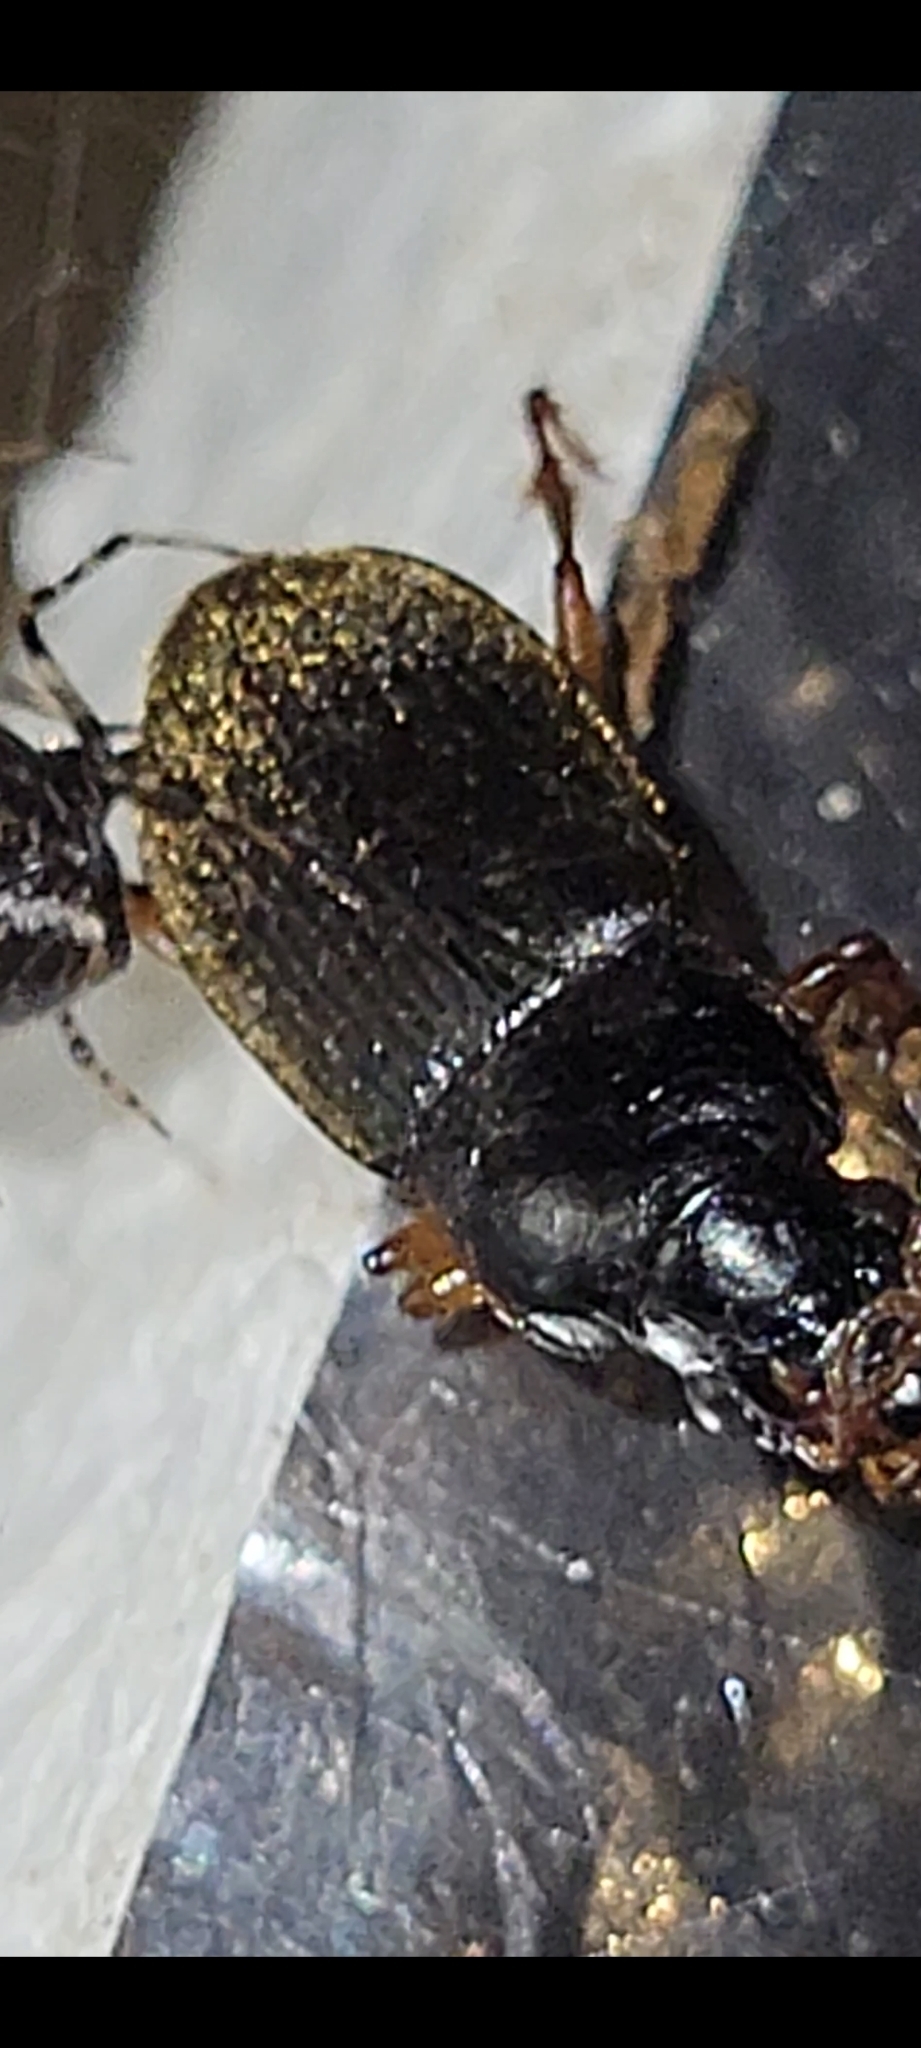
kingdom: Animalia
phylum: Arthropoda
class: Insecta
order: Coleoptera
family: Carabidae
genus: Harpalus
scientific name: Harpalus rufipes
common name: Strawberry harp ground beetle
